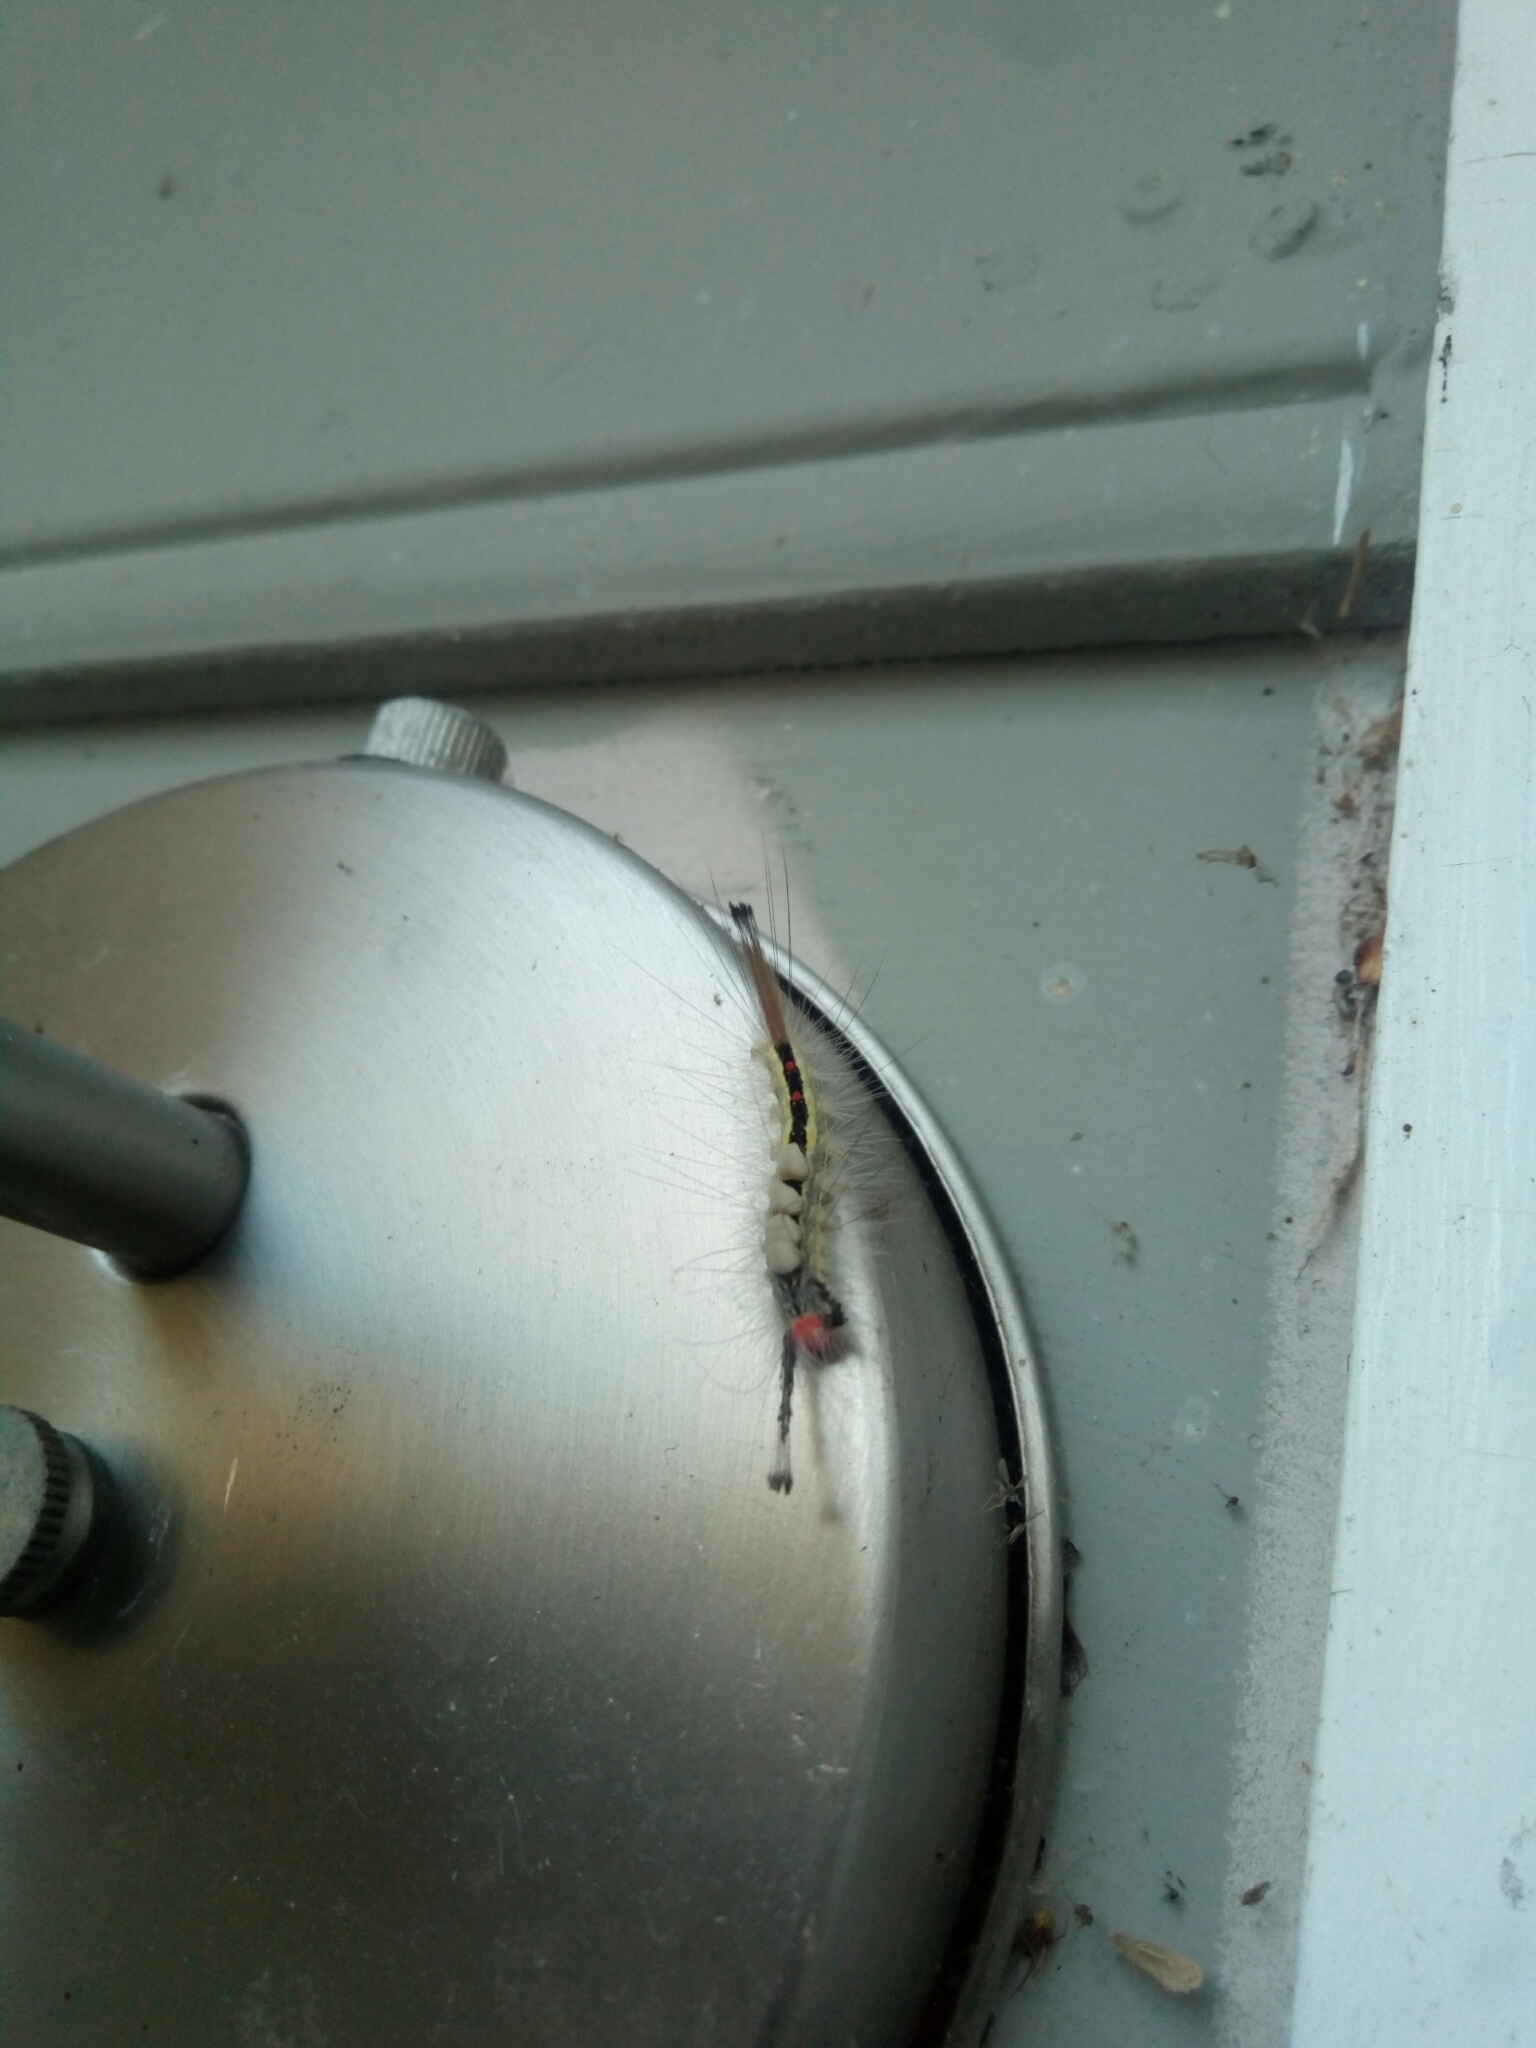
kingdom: Animalia
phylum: Arthropoda
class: Insecta
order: Lepidoptera
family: Erebidae
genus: Orgyia
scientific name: Orgyia leucostigma
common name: White-marked tussock moth
